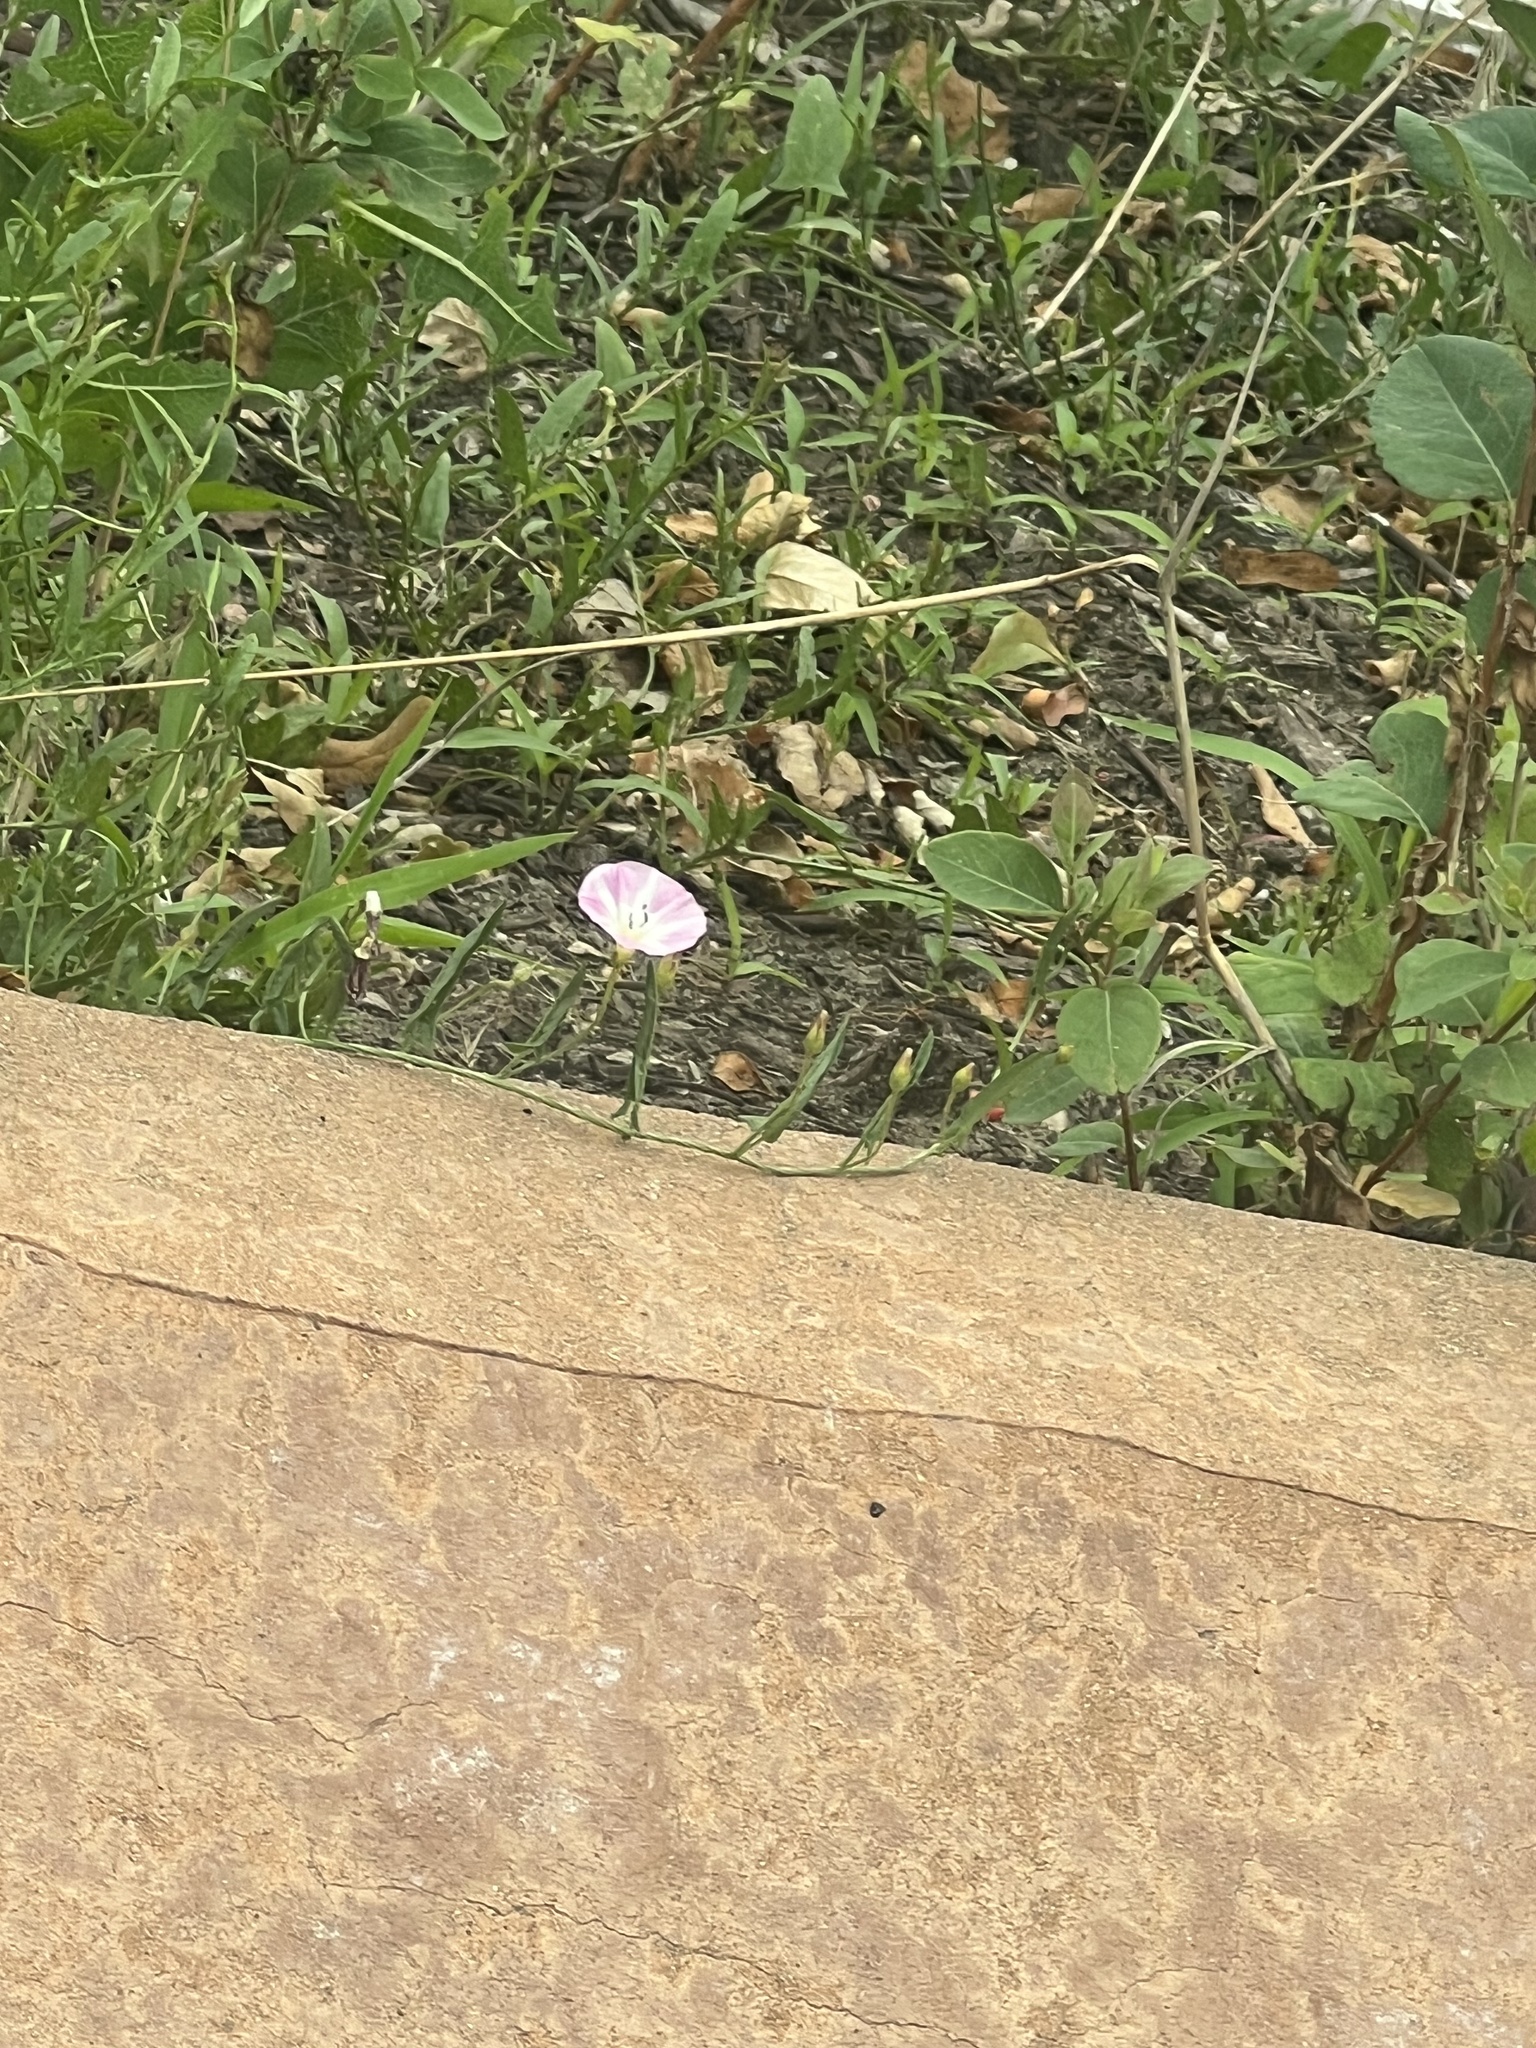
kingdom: Plantae
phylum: Tracheophyta
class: Magnoliopsida
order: Solanales
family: Convolvulaceae
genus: Convolvulus
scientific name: Convolvulus arvensis
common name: Field bindweed
